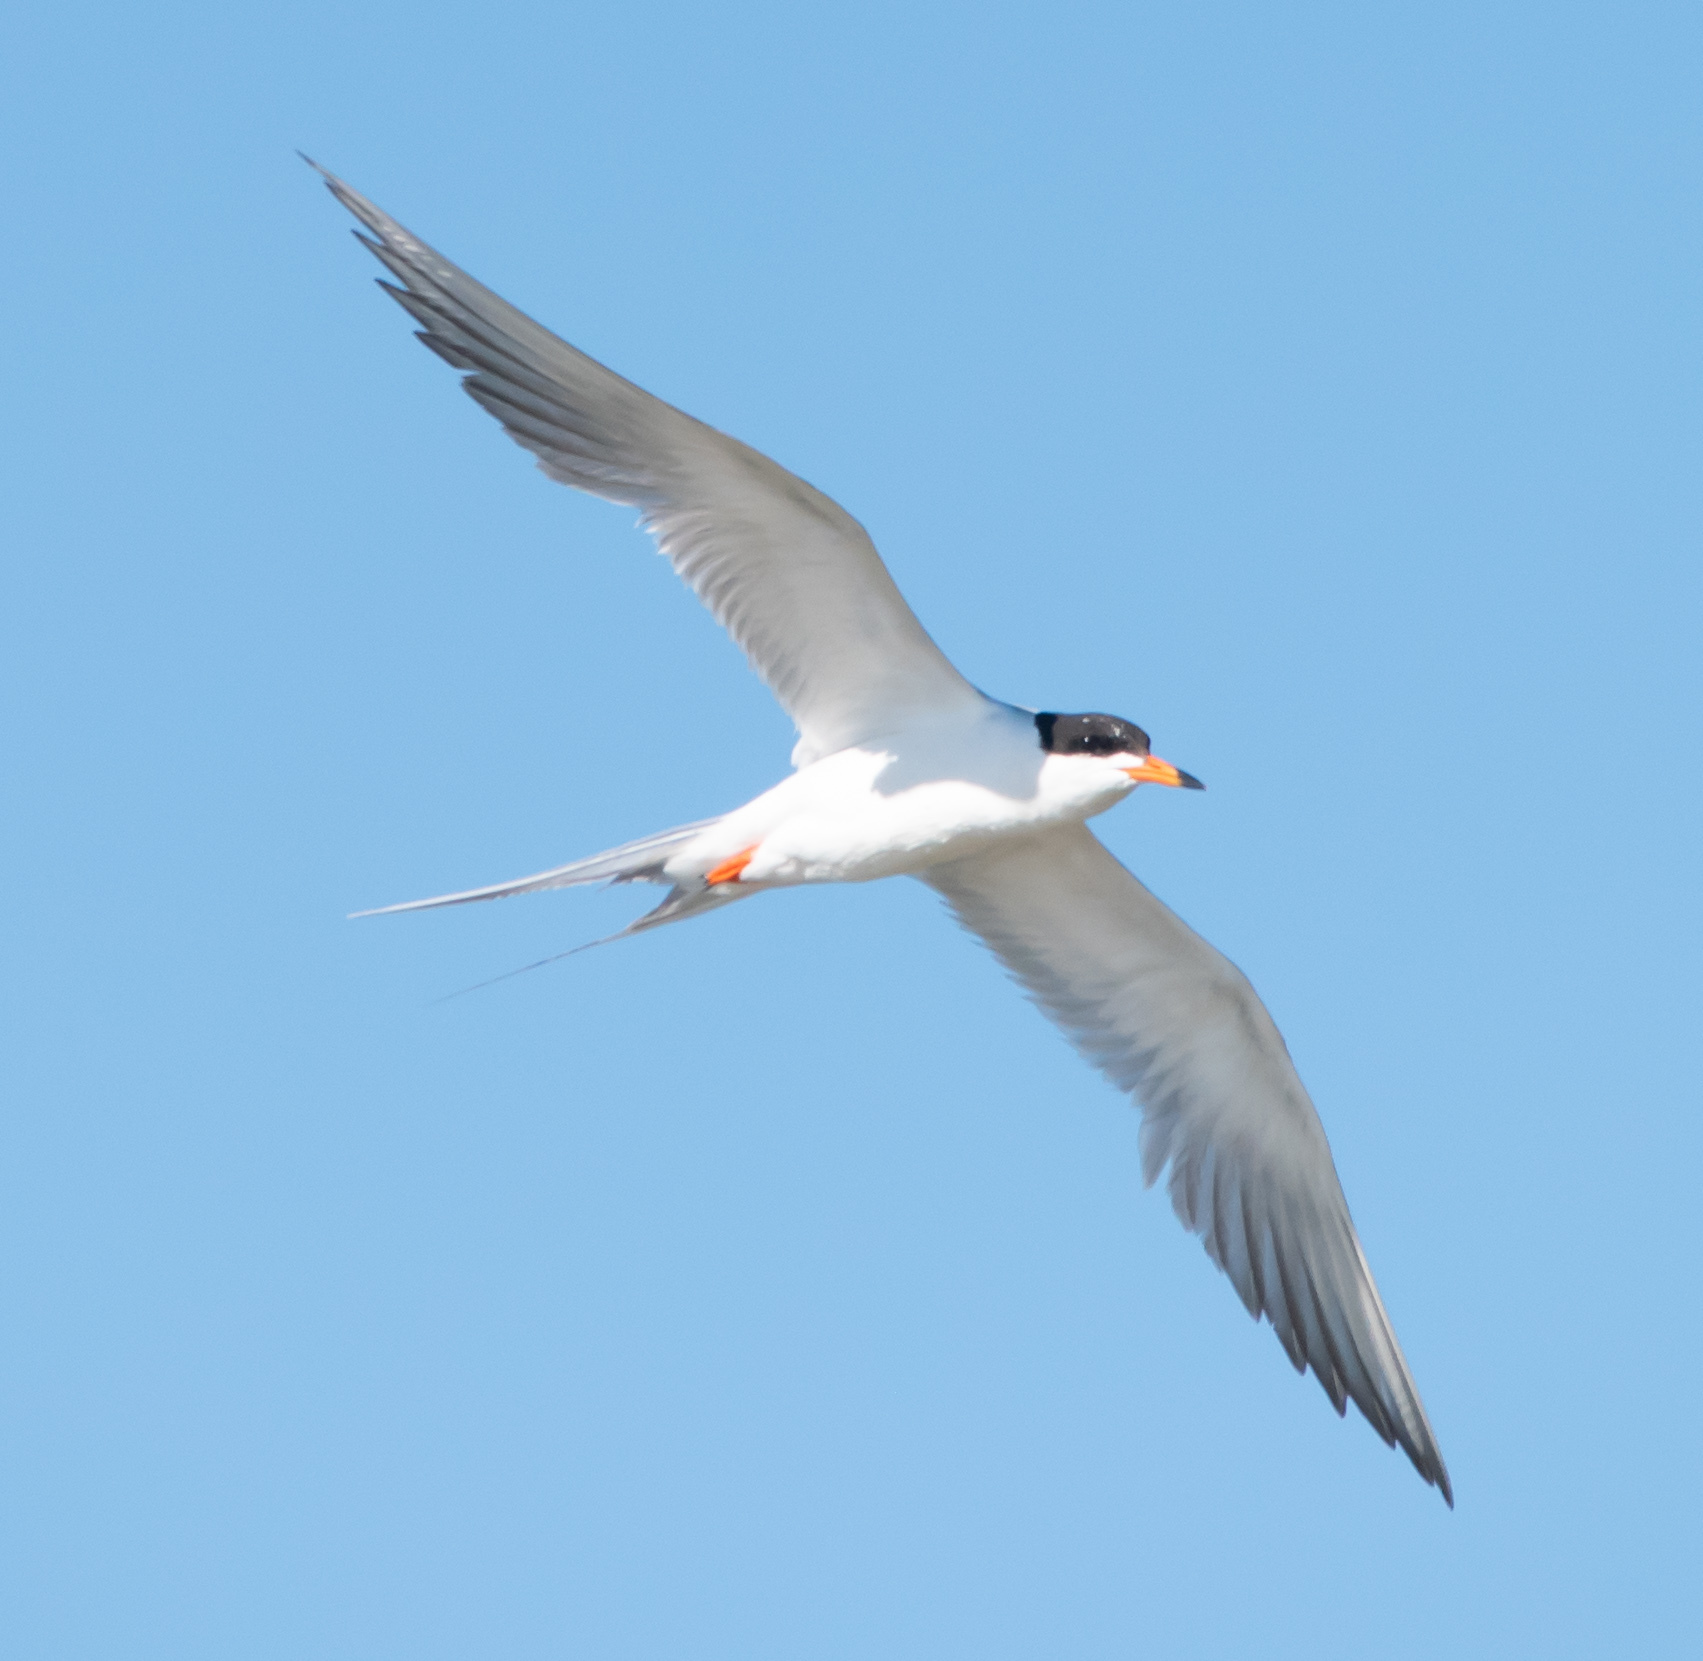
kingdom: Animalia
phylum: Chordata
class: Aves
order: Charadriiformes
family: Laridae
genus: Sterna
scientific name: Sterna forsteri
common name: Forster's tern
